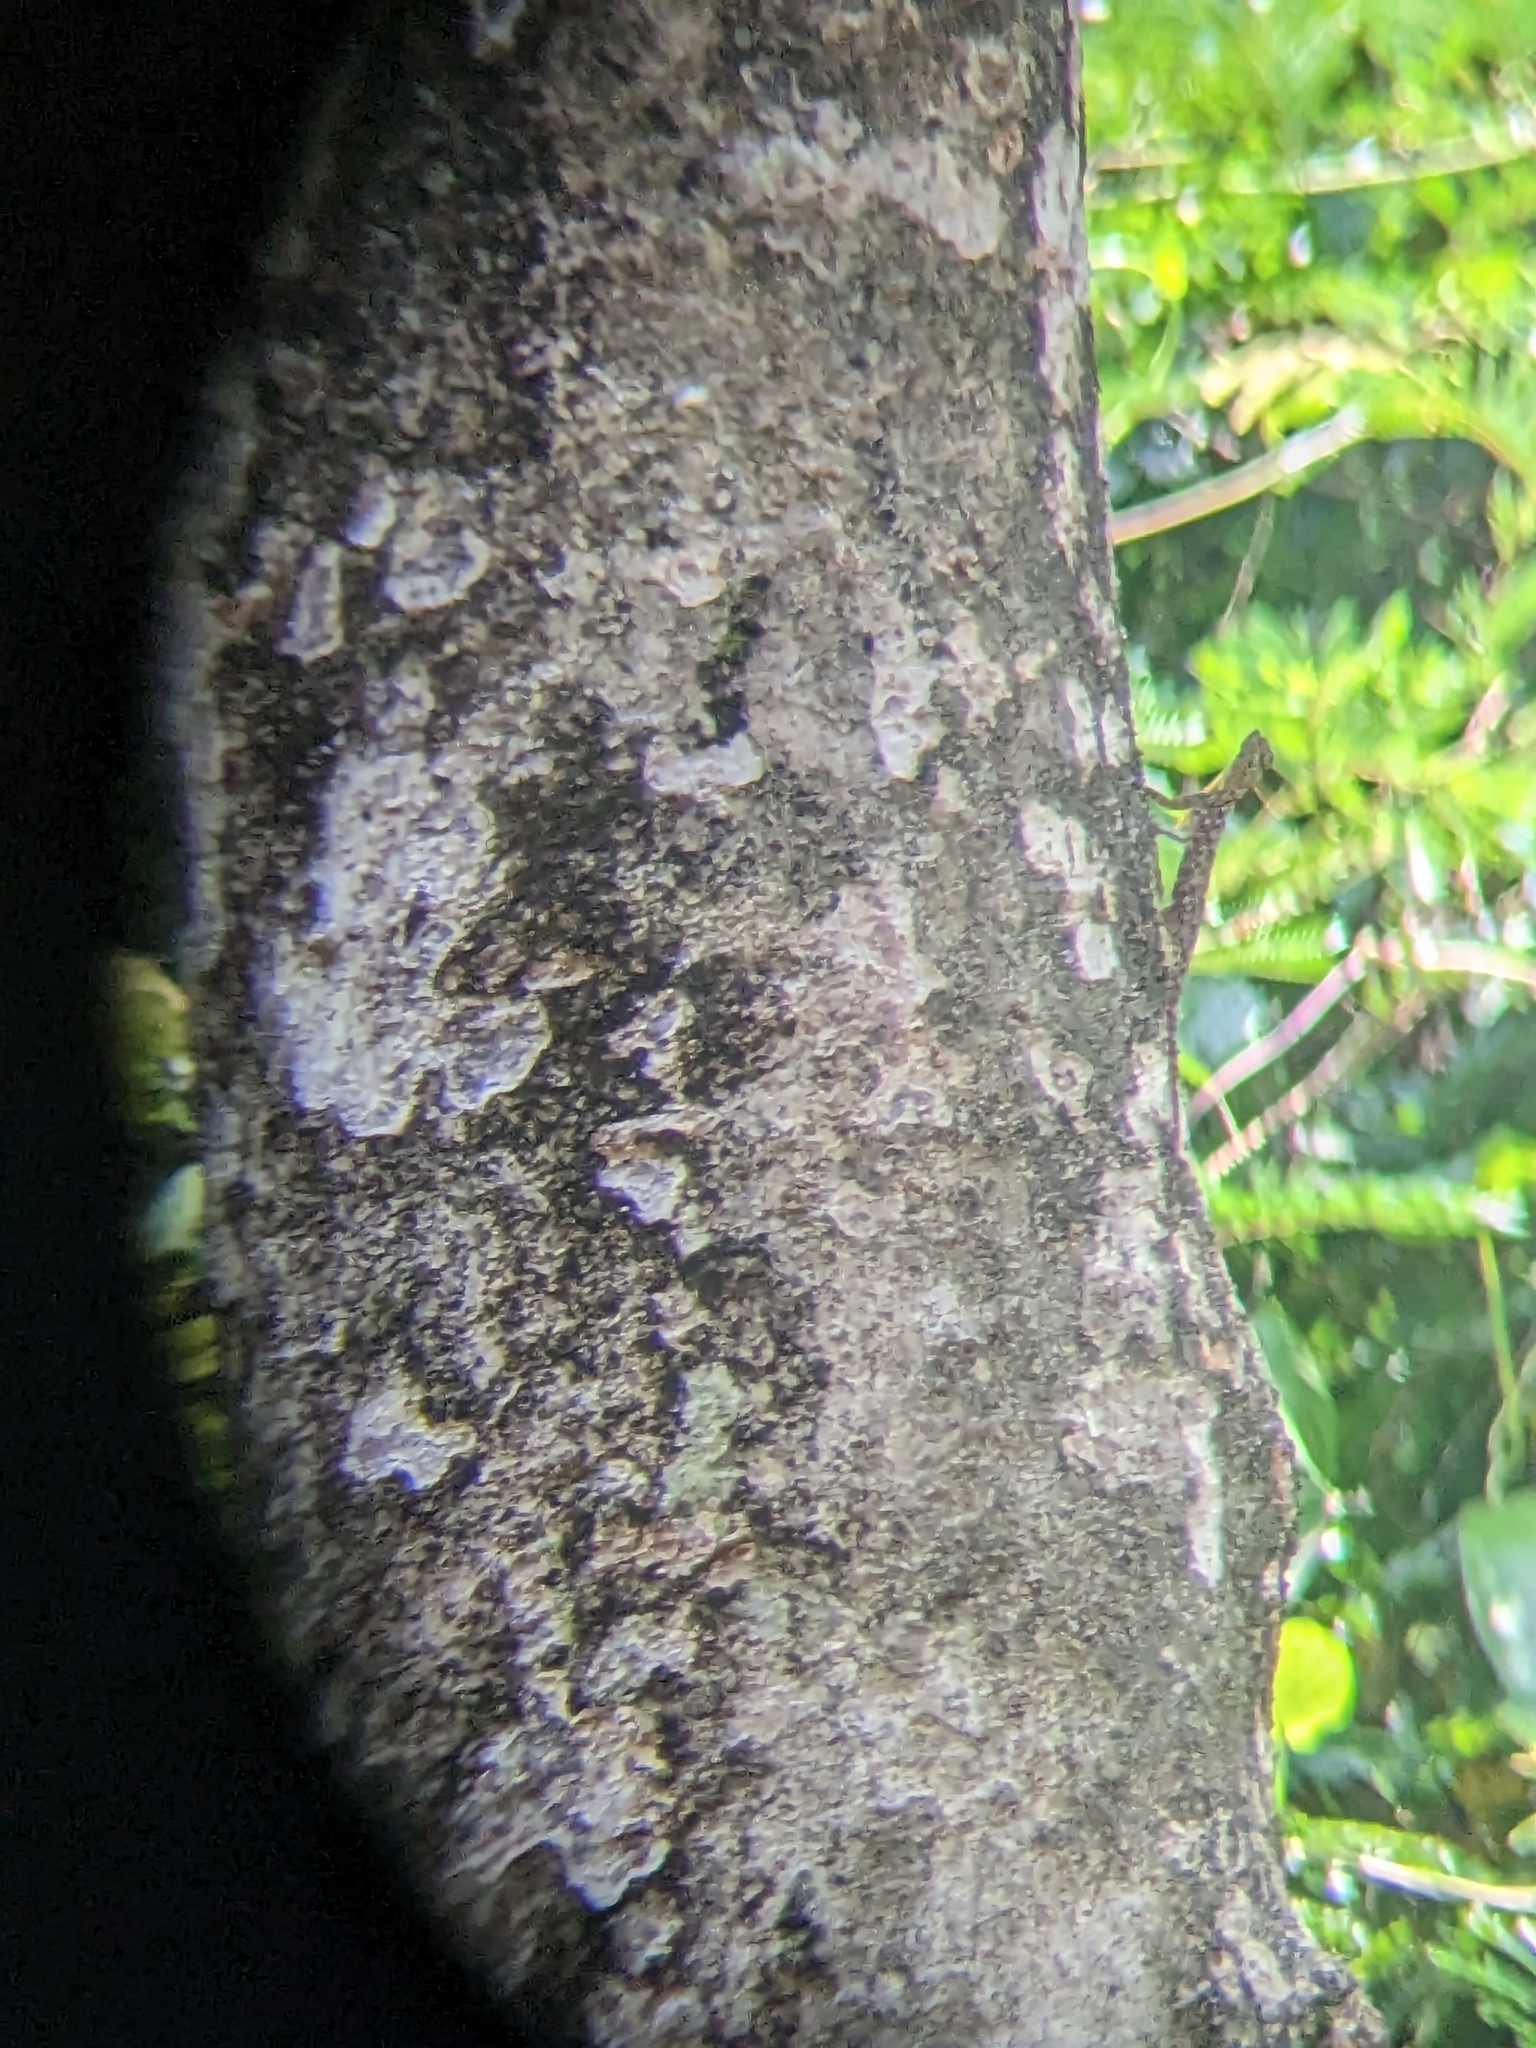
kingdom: Animalia
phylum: Chordata
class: Squamata
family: Agamidae
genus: Draco
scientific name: Draco dussumieri
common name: Southern flying lizard
